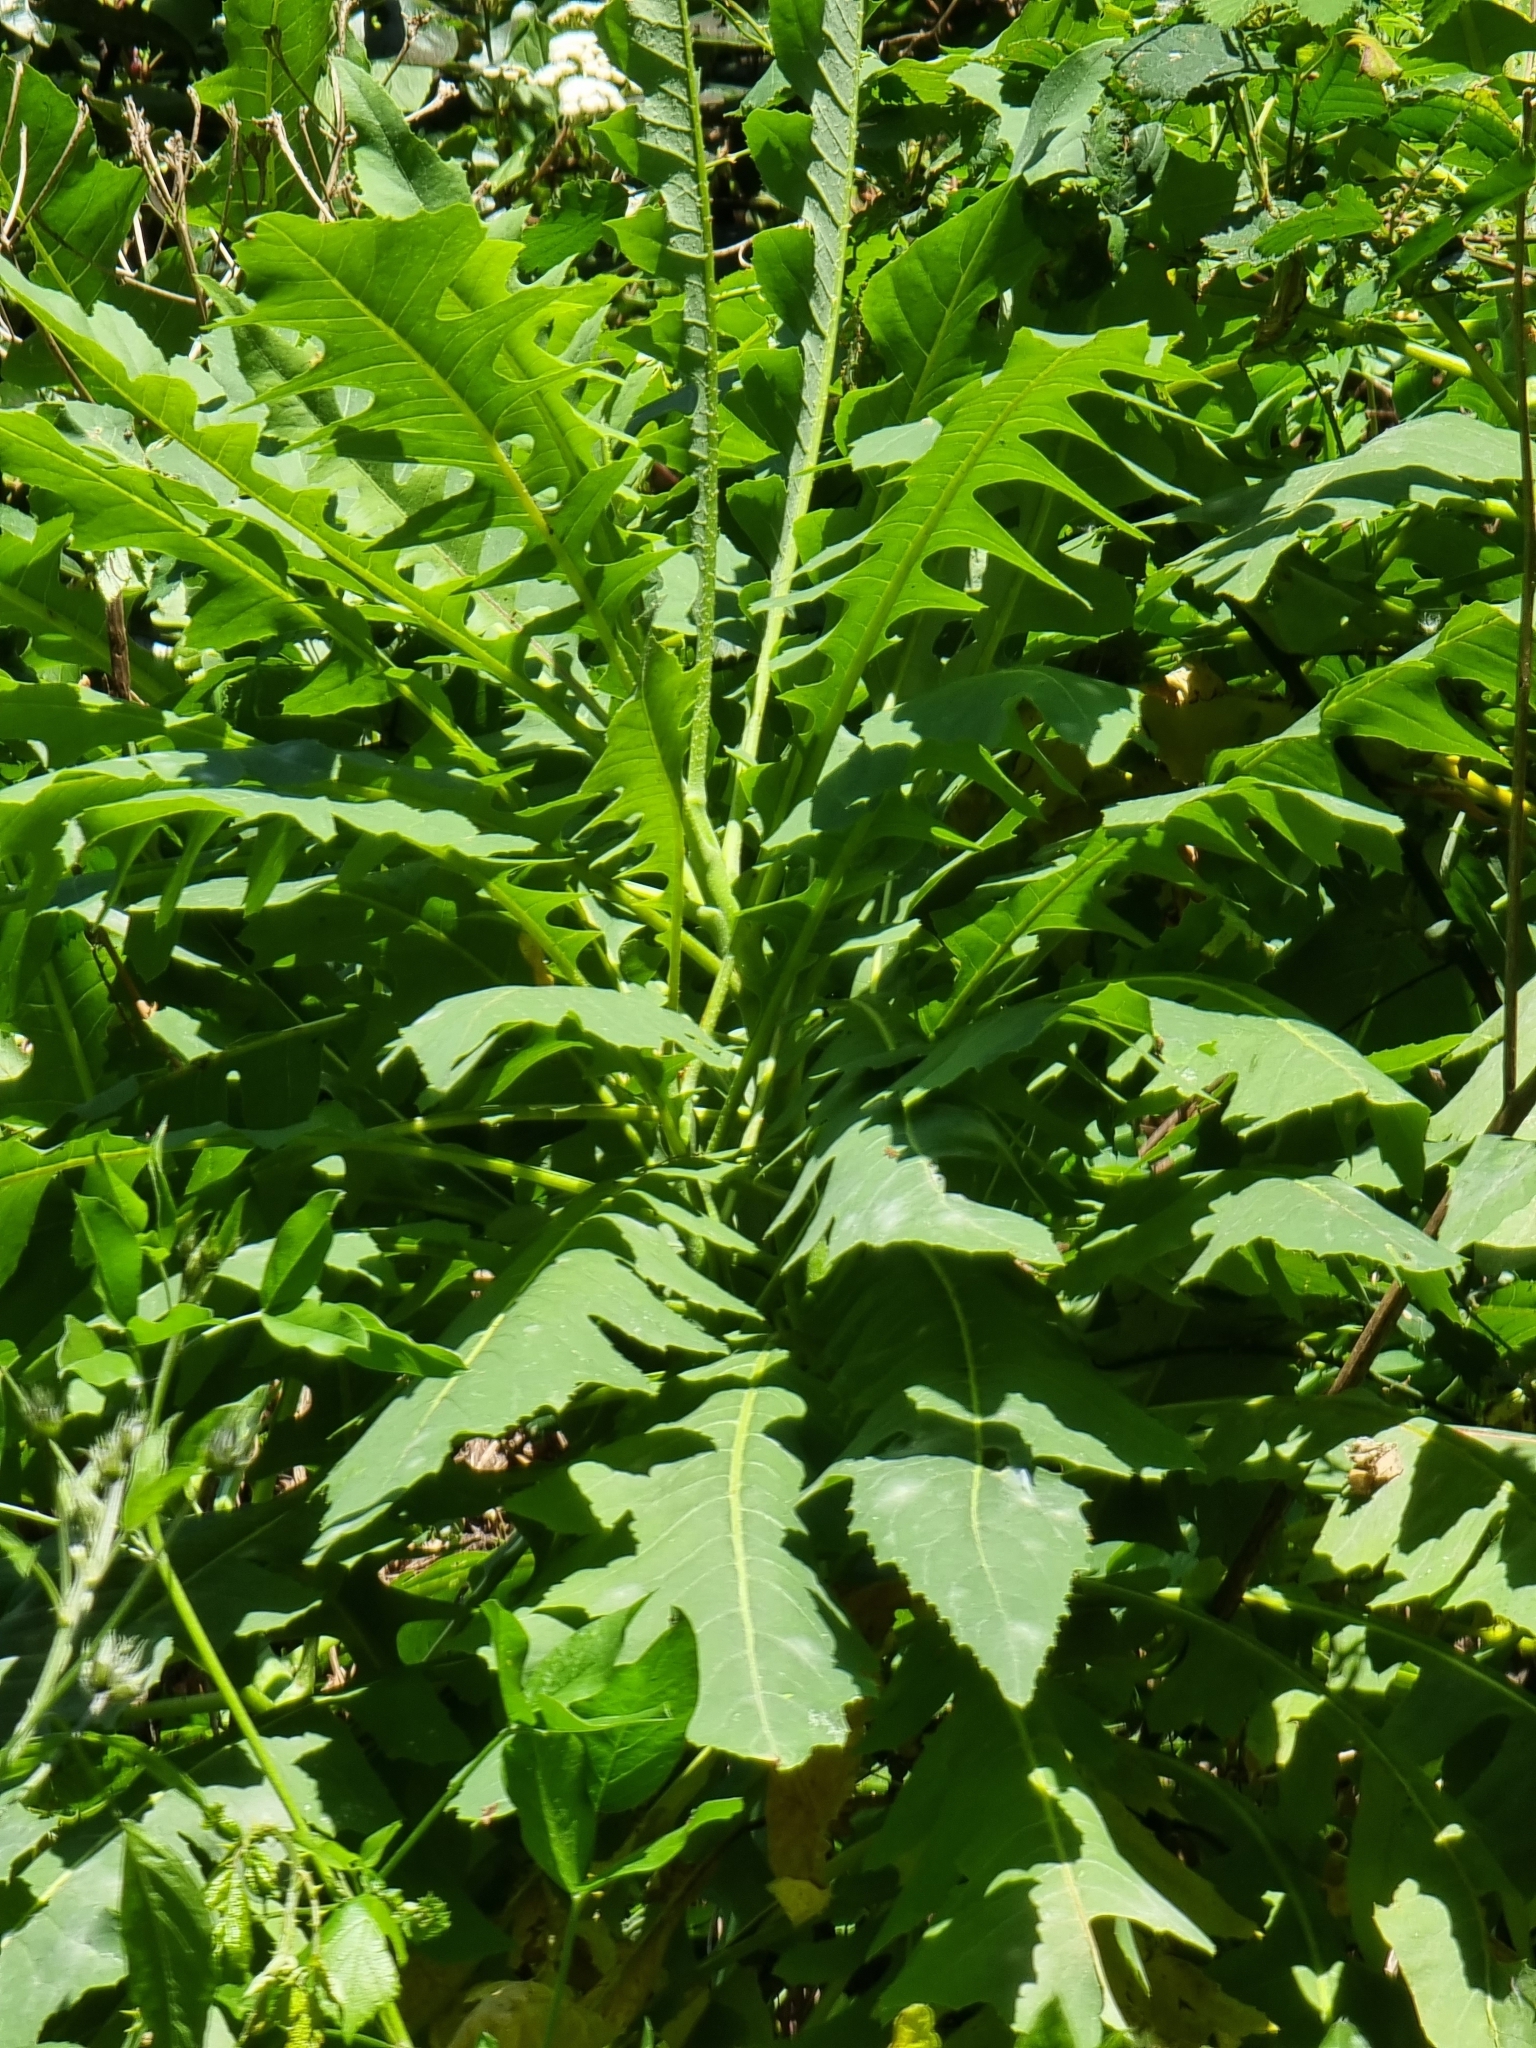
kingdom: Plantae
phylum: Tracheophyta
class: Magnoliopsida
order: Asterales
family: Asteraceae
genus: Sonchus
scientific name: Sonchus fruticosus
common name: Shrubby sow-thistle
